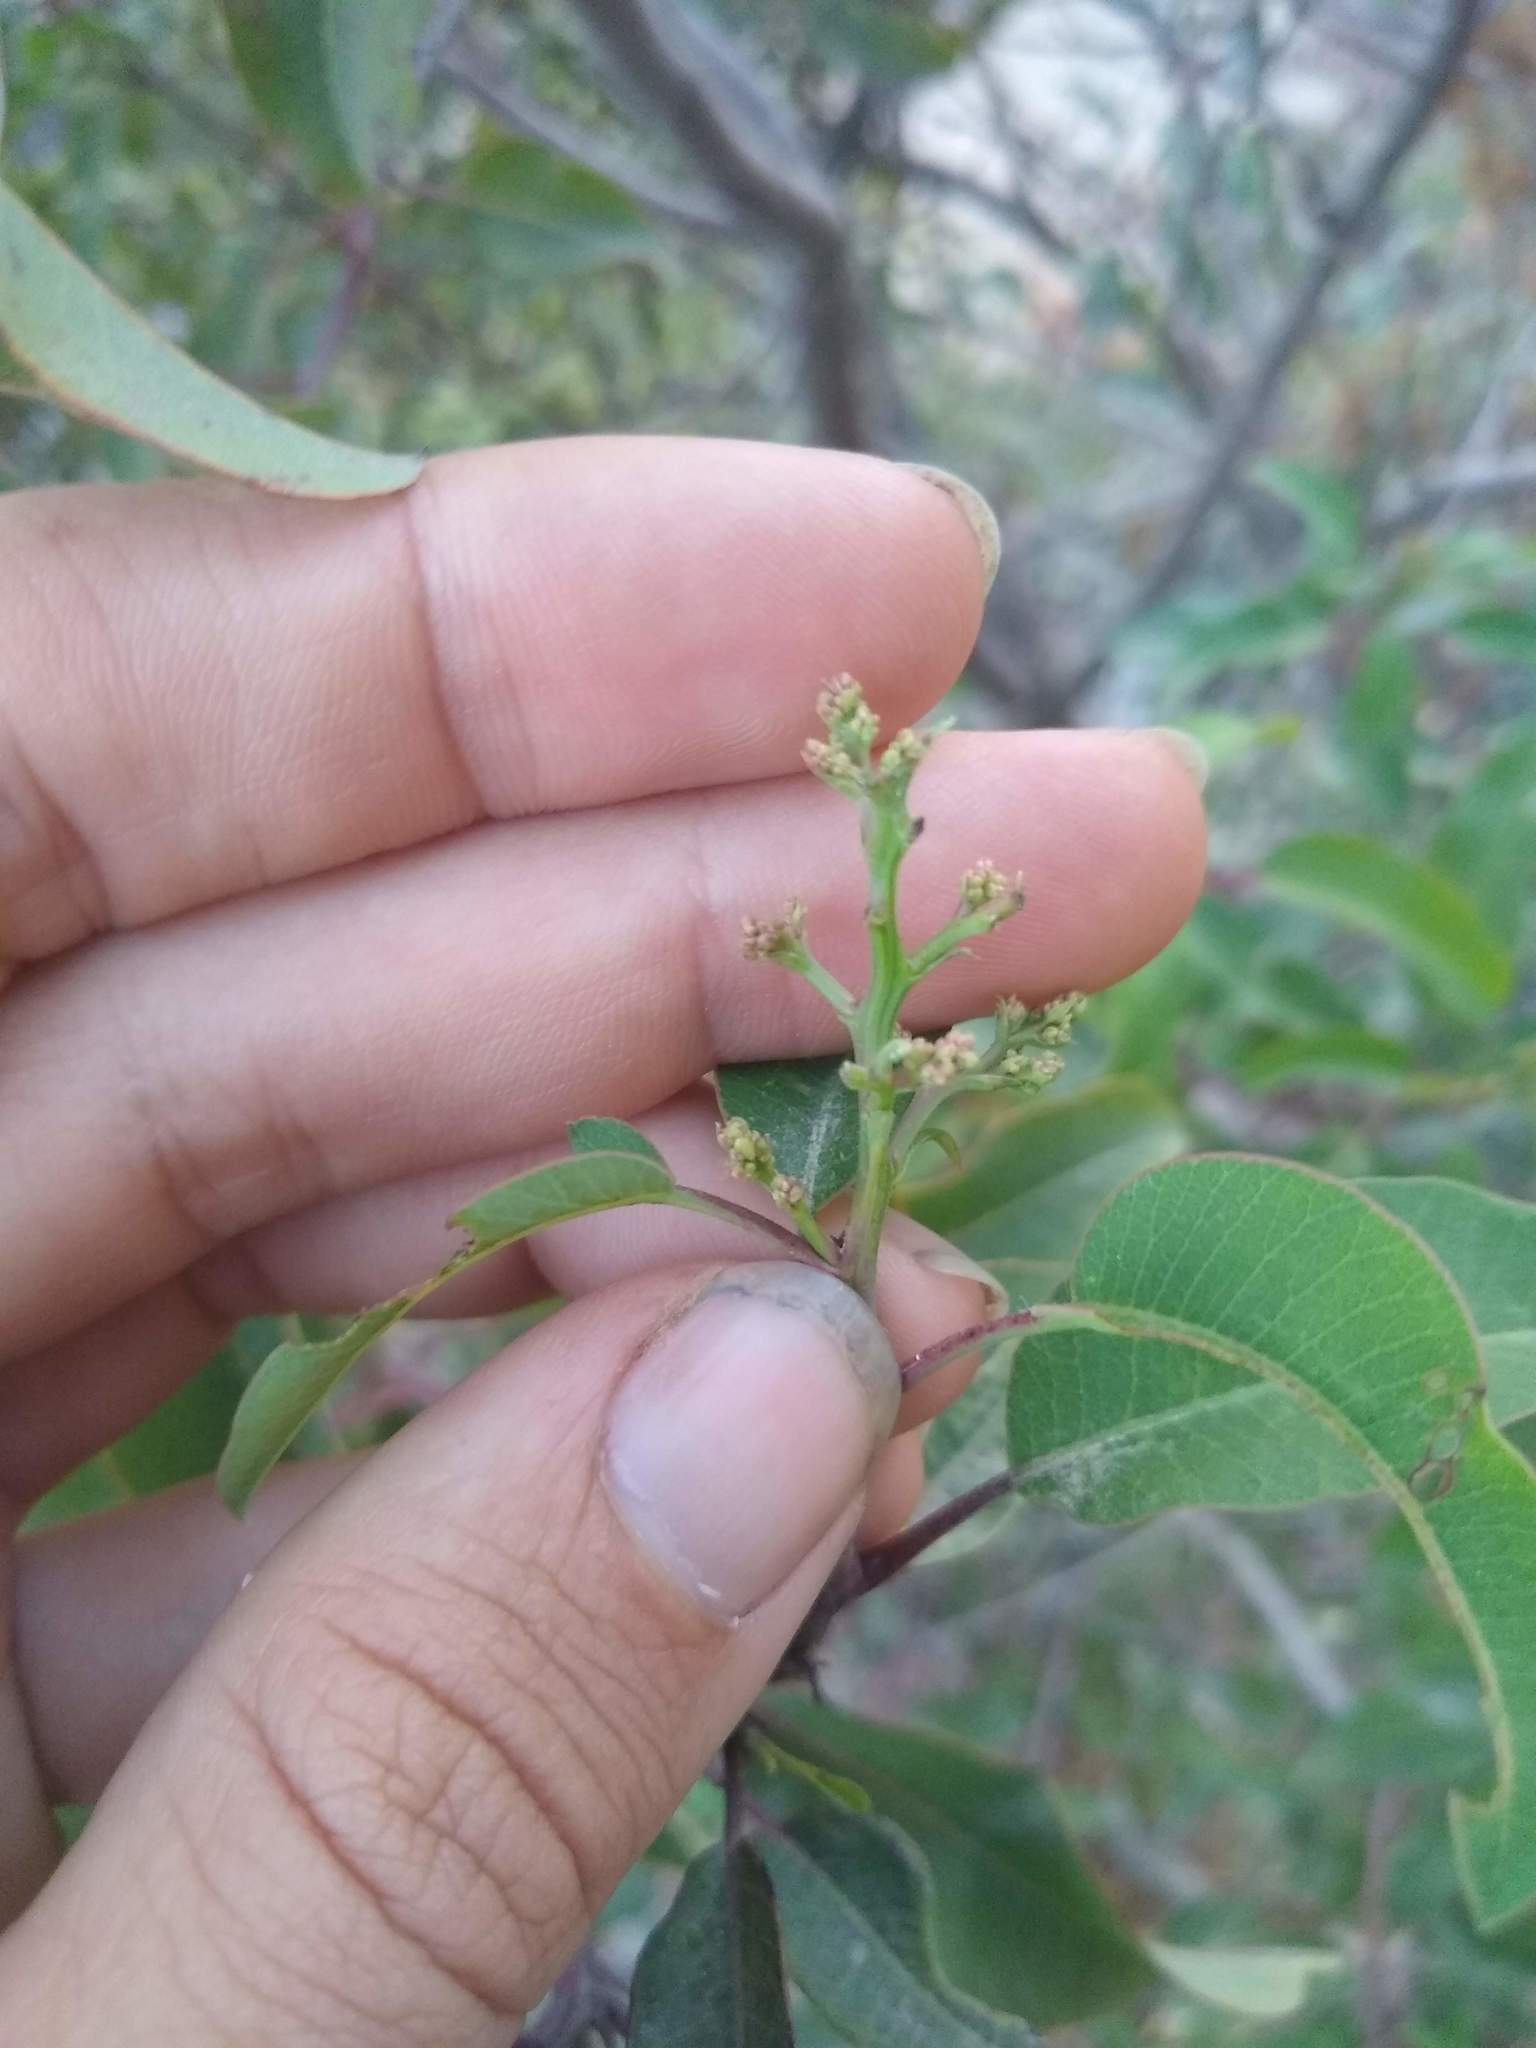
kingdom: Plantae
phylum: Tracheophyta
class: Magnoliopsida
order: Sapindales
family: Anacardiaceae
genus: Malosma
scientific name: Malosma laurina
